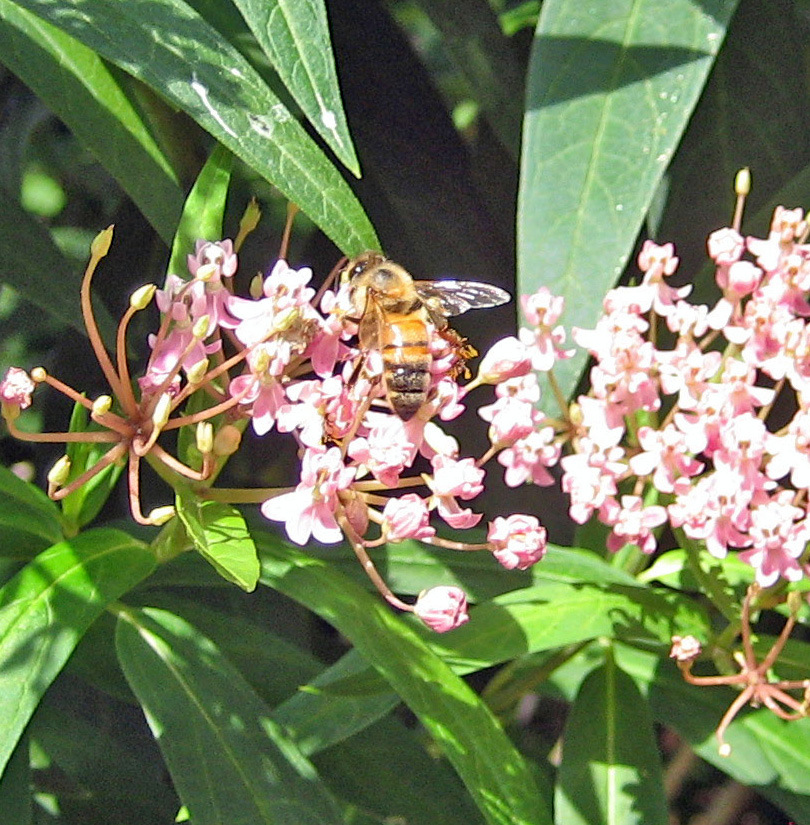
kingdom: Animalia
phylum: Arthropoda
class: Insecta
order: Hymenoptera
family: Apidae
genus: Apis
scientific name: Apis mellifera
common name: Honey bee
